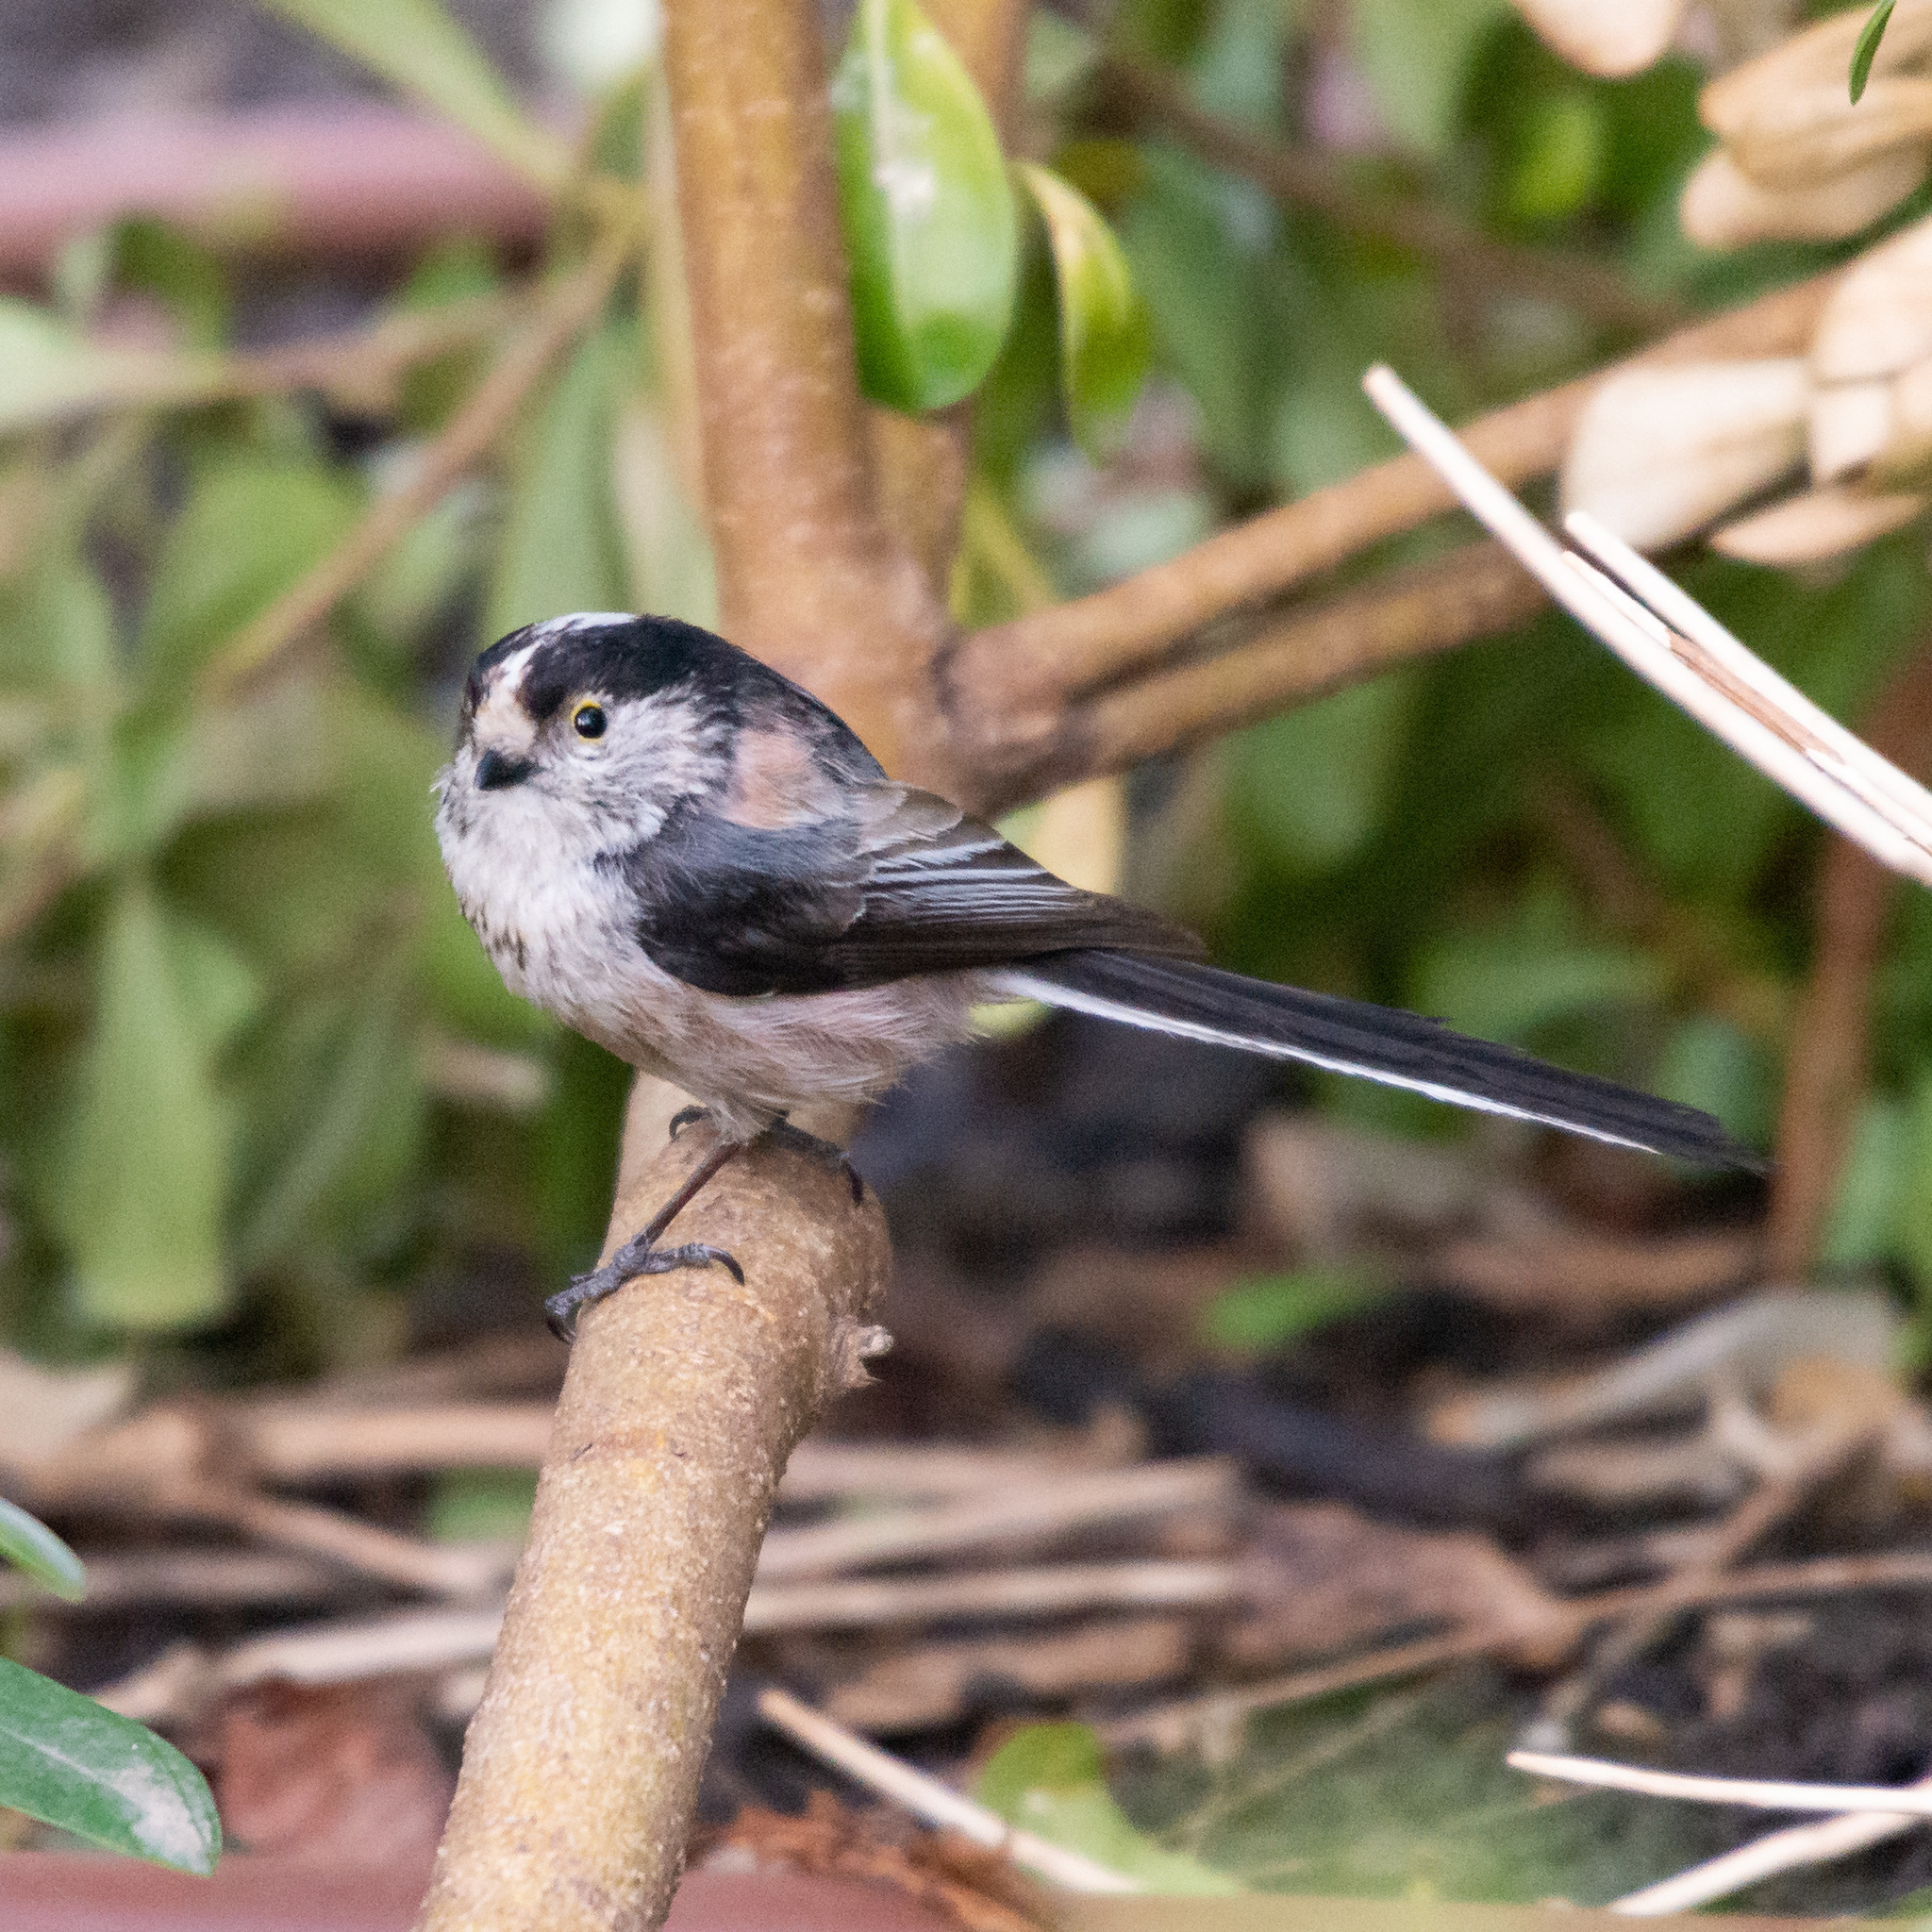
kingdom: Animalia
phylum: Chordata
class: Aves
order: Passeriformes
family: Aegithalidae
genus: Aegithalos
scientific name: Aegithalos caudatus
